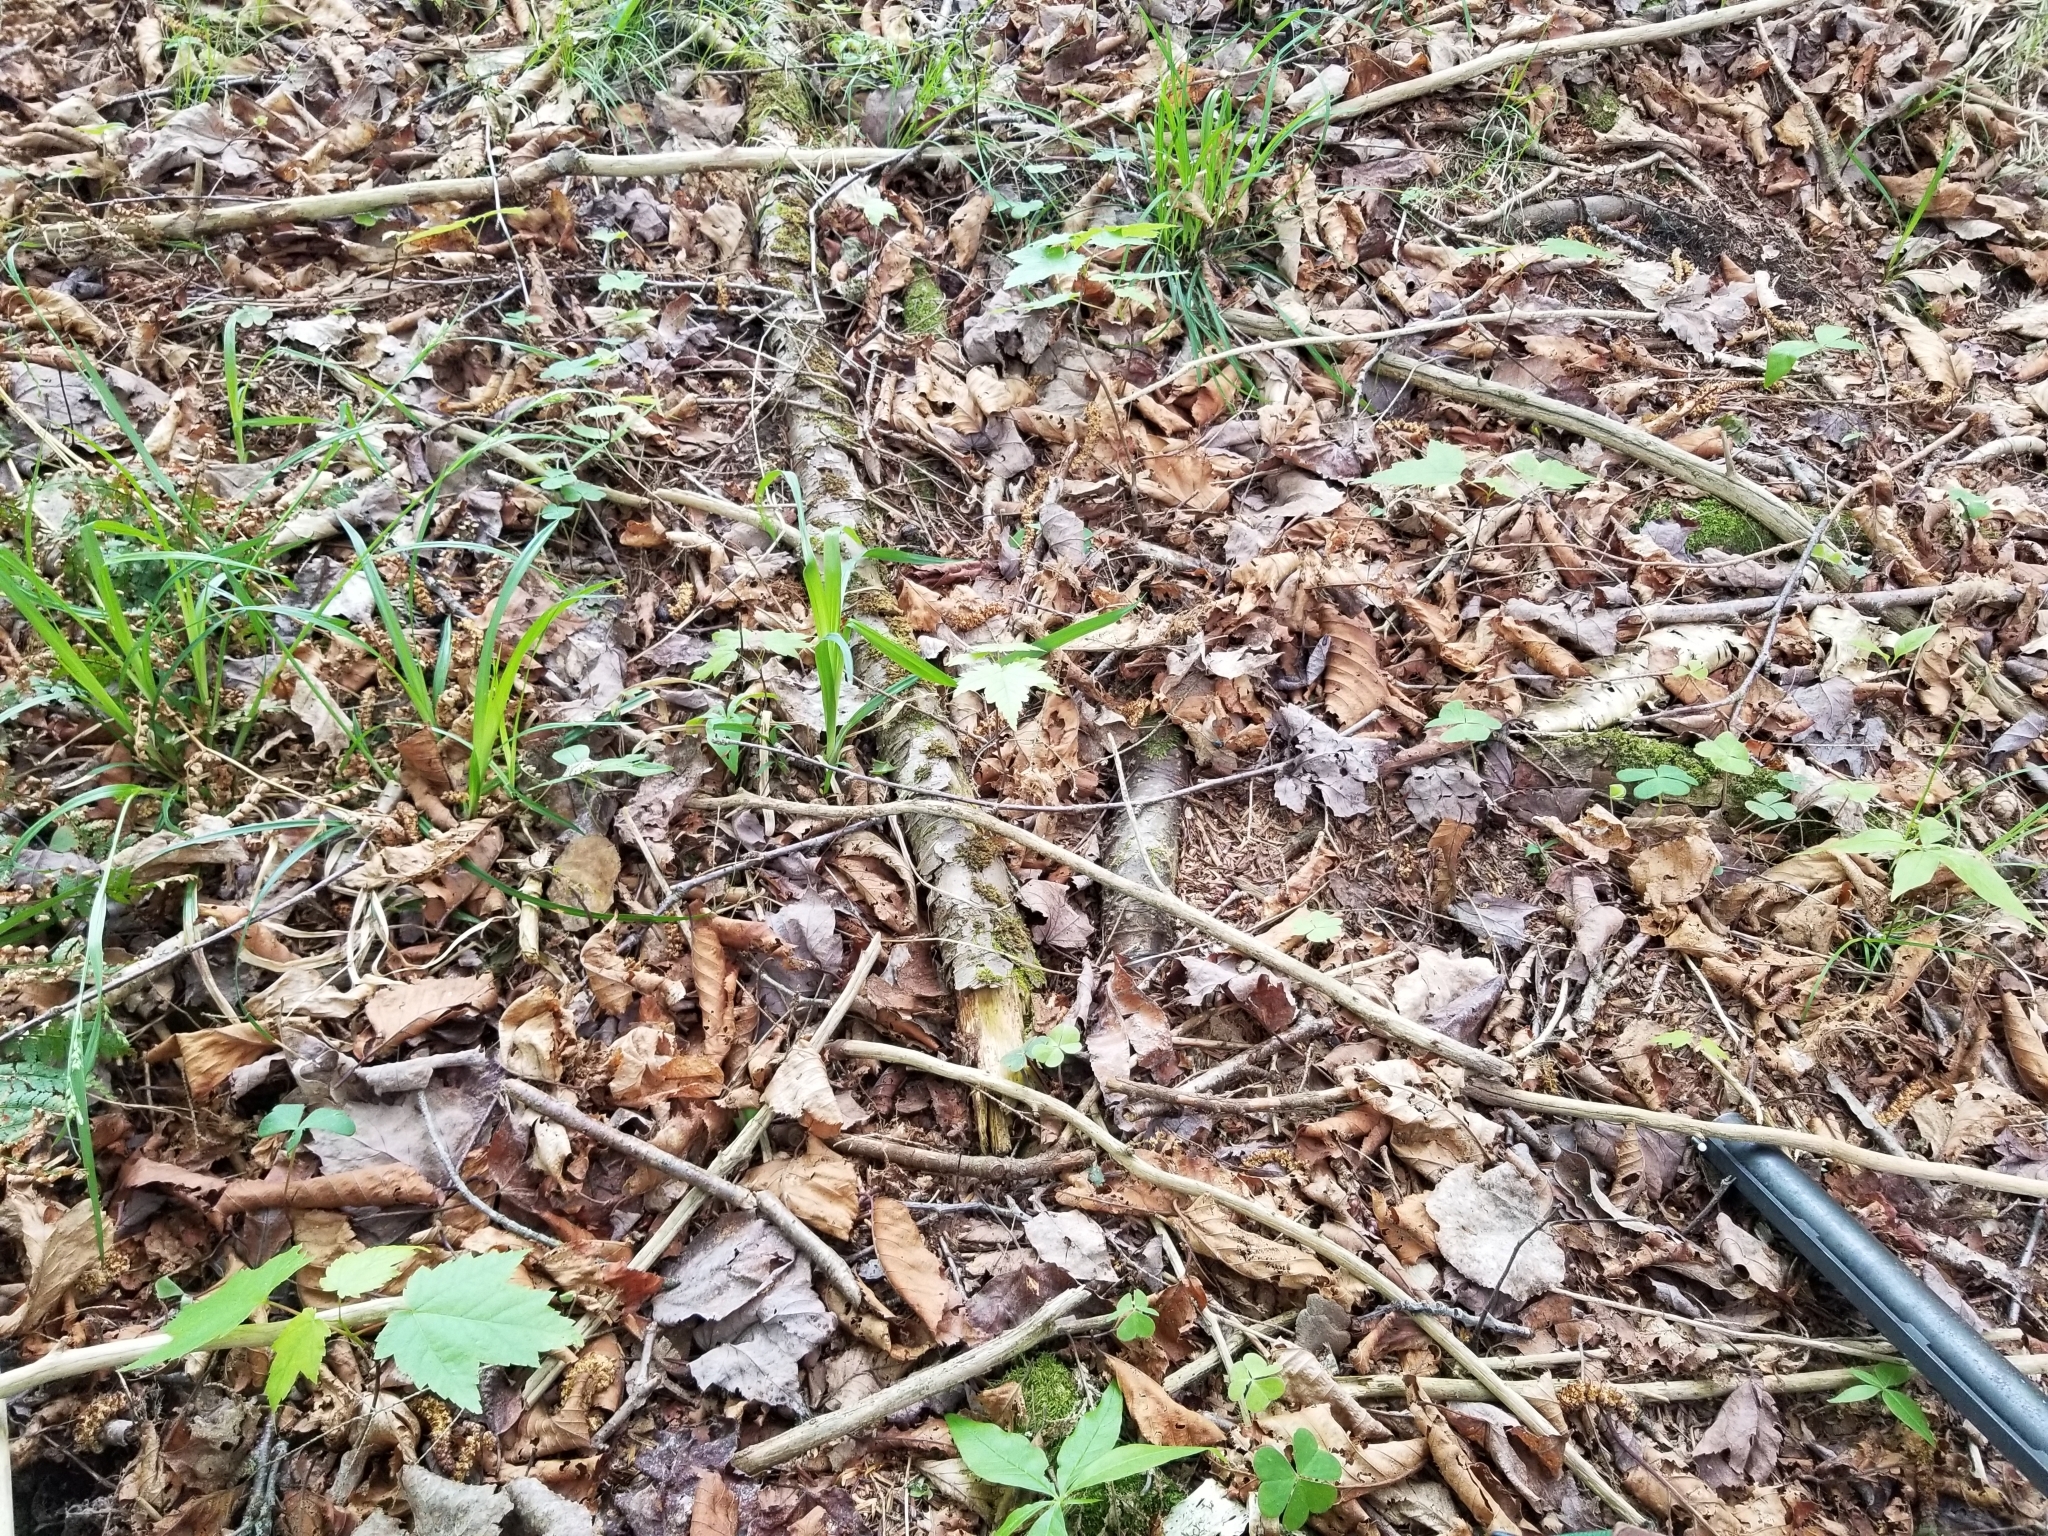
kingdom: Plantae
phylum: Tracheophyta
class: Magnoliopsida
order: Sapindales
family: Sapindaceae
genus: Acer
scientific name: Acer rubrum
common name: Red maple
